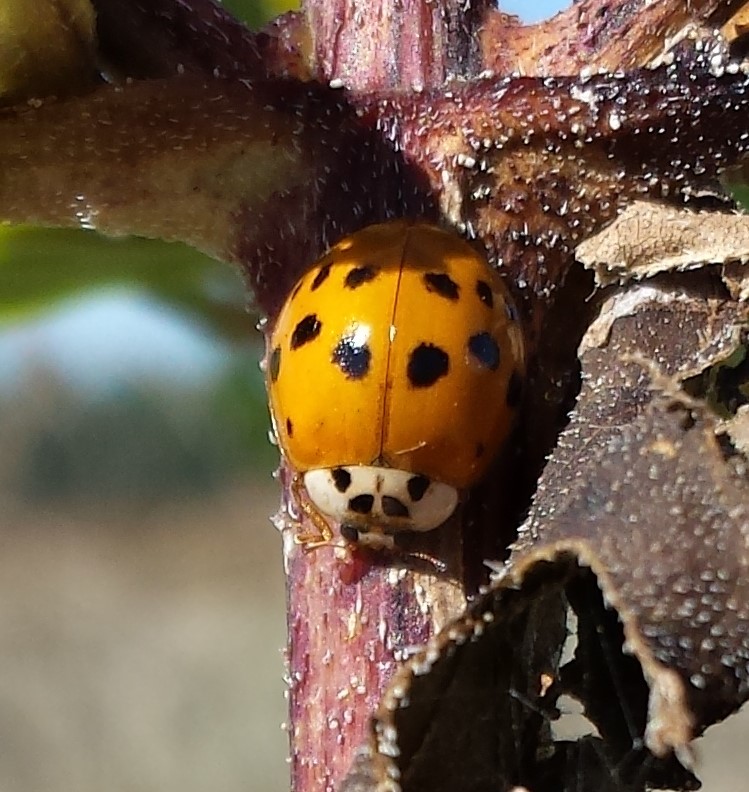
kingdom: Animalia
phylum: Arthropoda
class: Insecta
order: Coleoptera
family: Coccinellidae
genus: Harmonia
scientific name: Harmonia axyridis
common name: Harlequin ladybird
